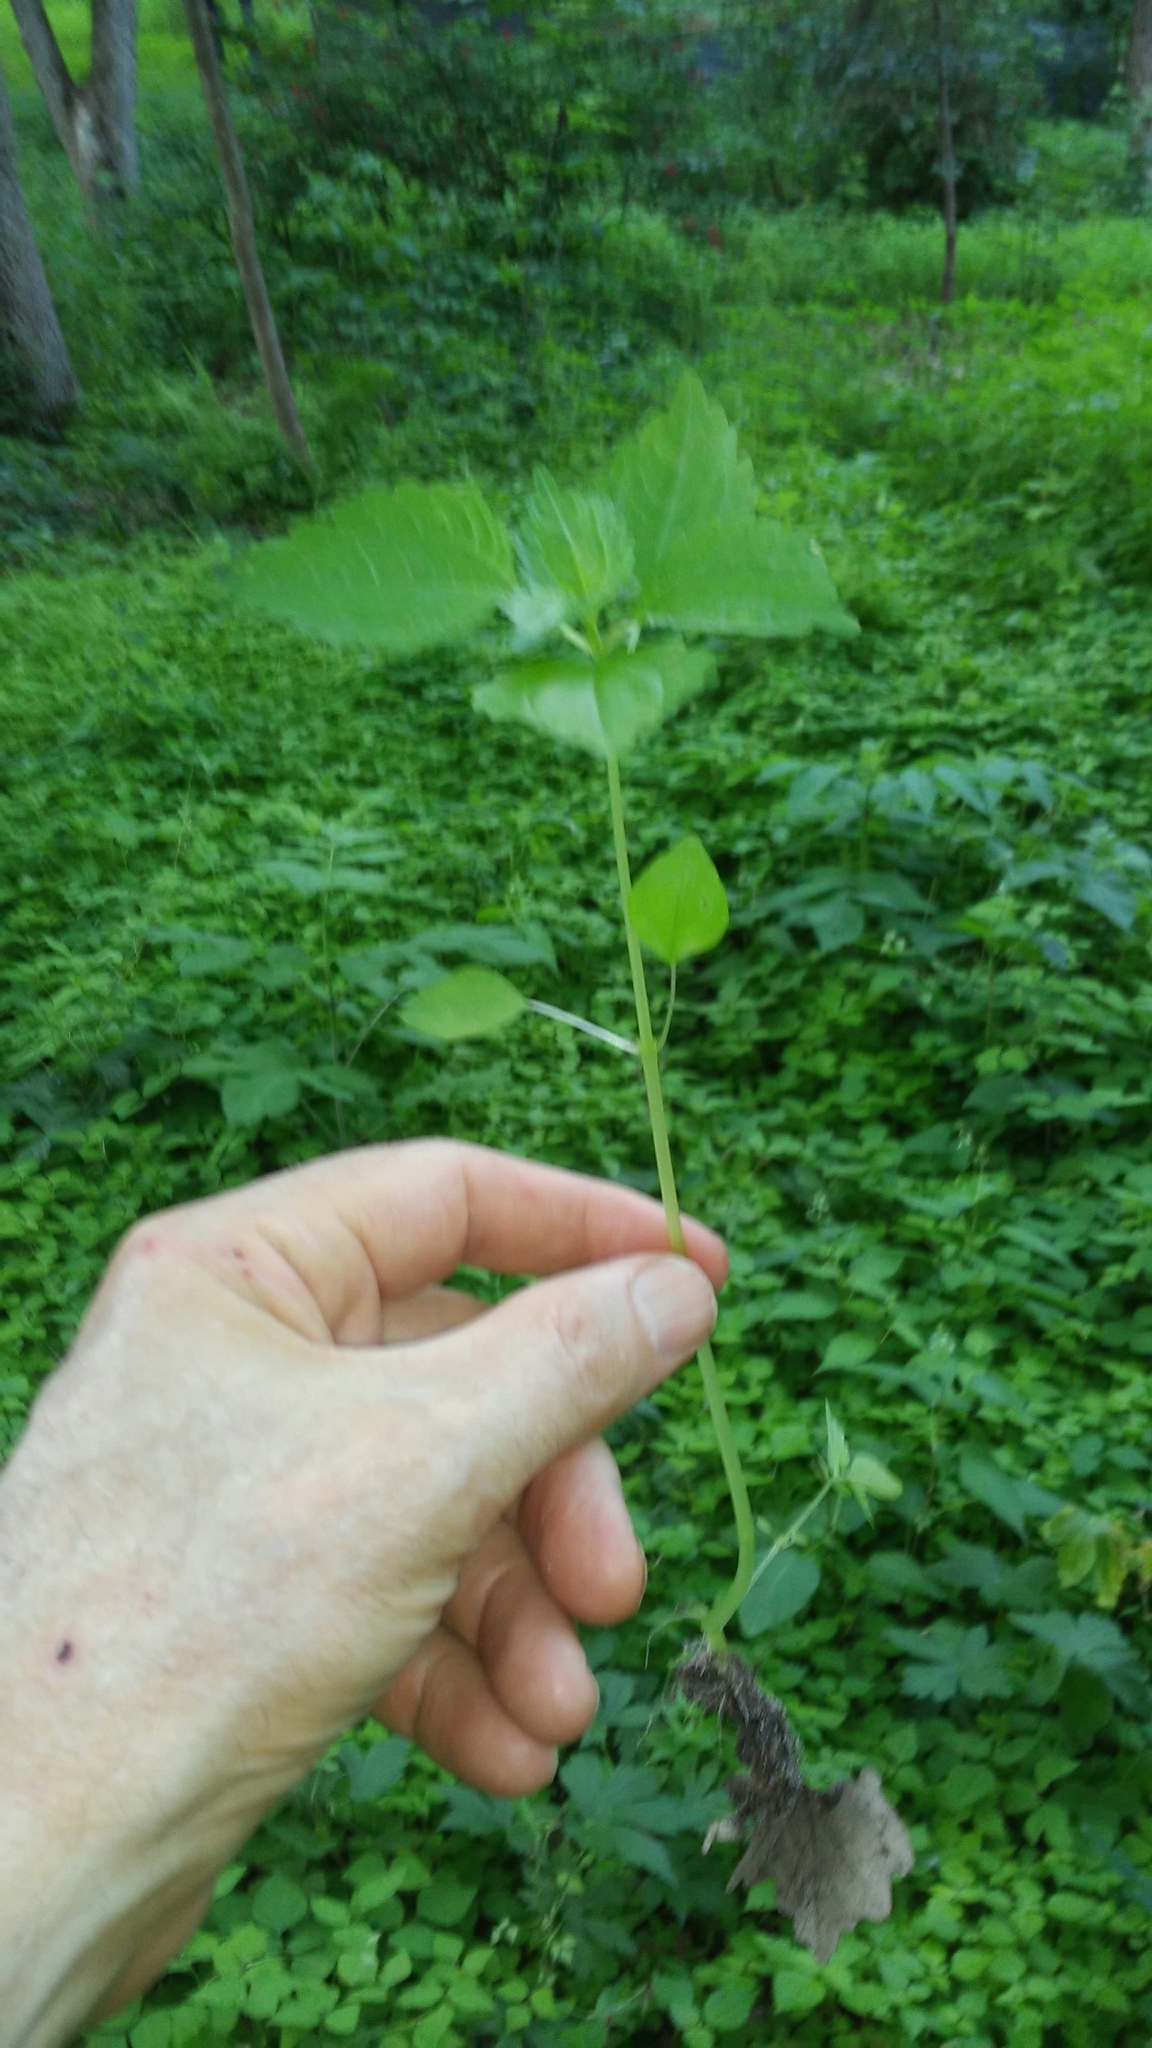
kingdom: Plantae
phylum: Tracheophyta
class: Magnoliopsida
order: Rosales
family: Urticaceae
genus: Pilea
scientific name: Pilea pumila
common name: Clearweed
